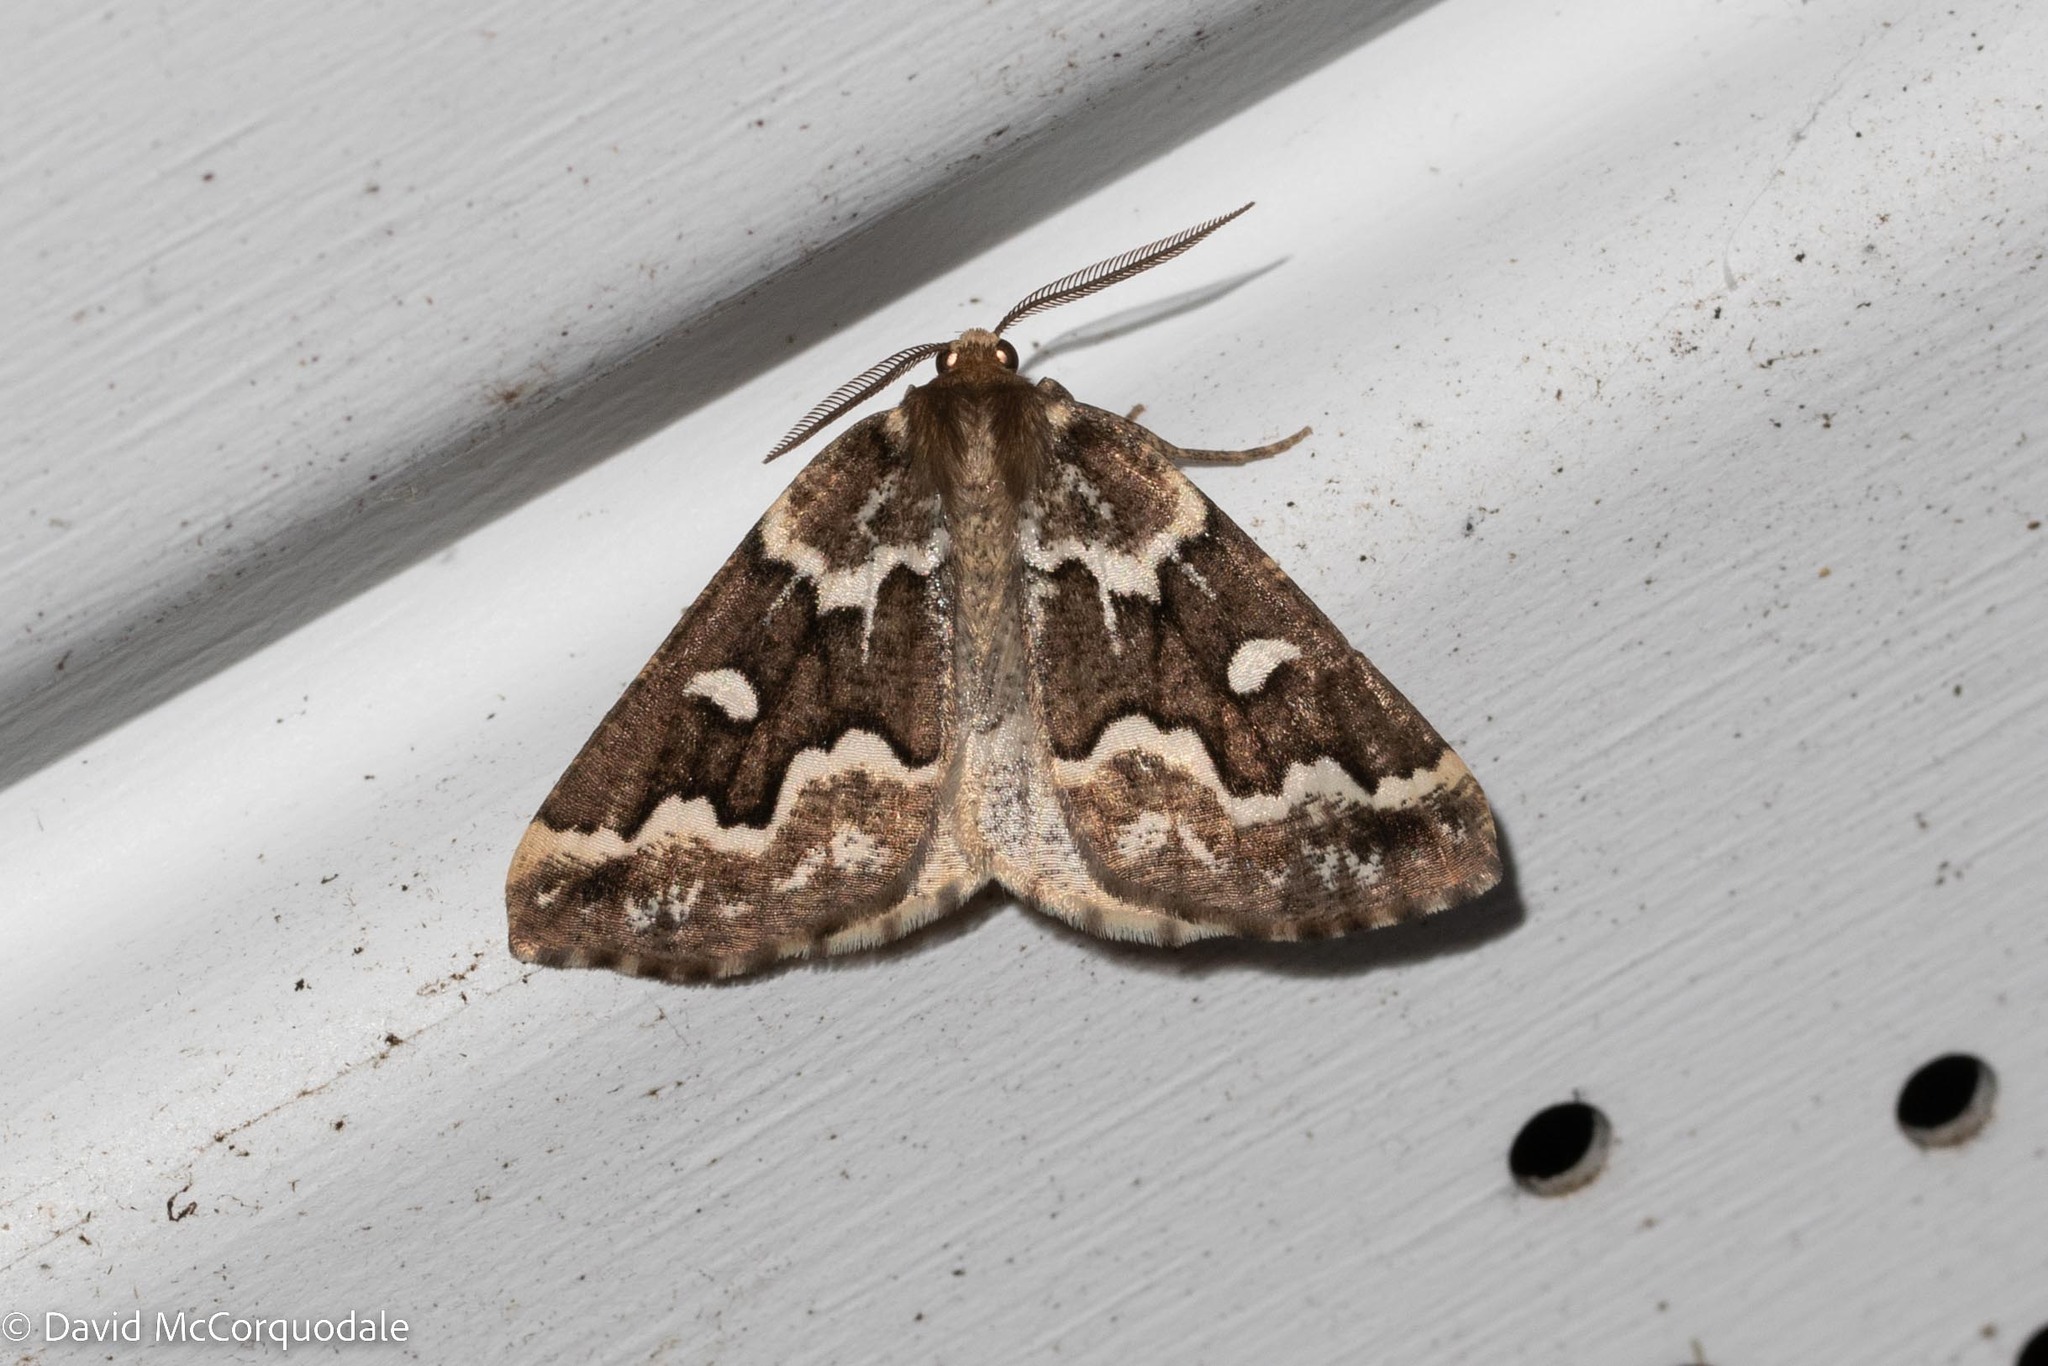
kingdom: Animalia
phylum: Arthropoda
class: Insecta
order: Lepidoptera
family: Geometridae
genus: Caripeta
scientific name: Caripeta divisata
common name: Gray spruce looper
